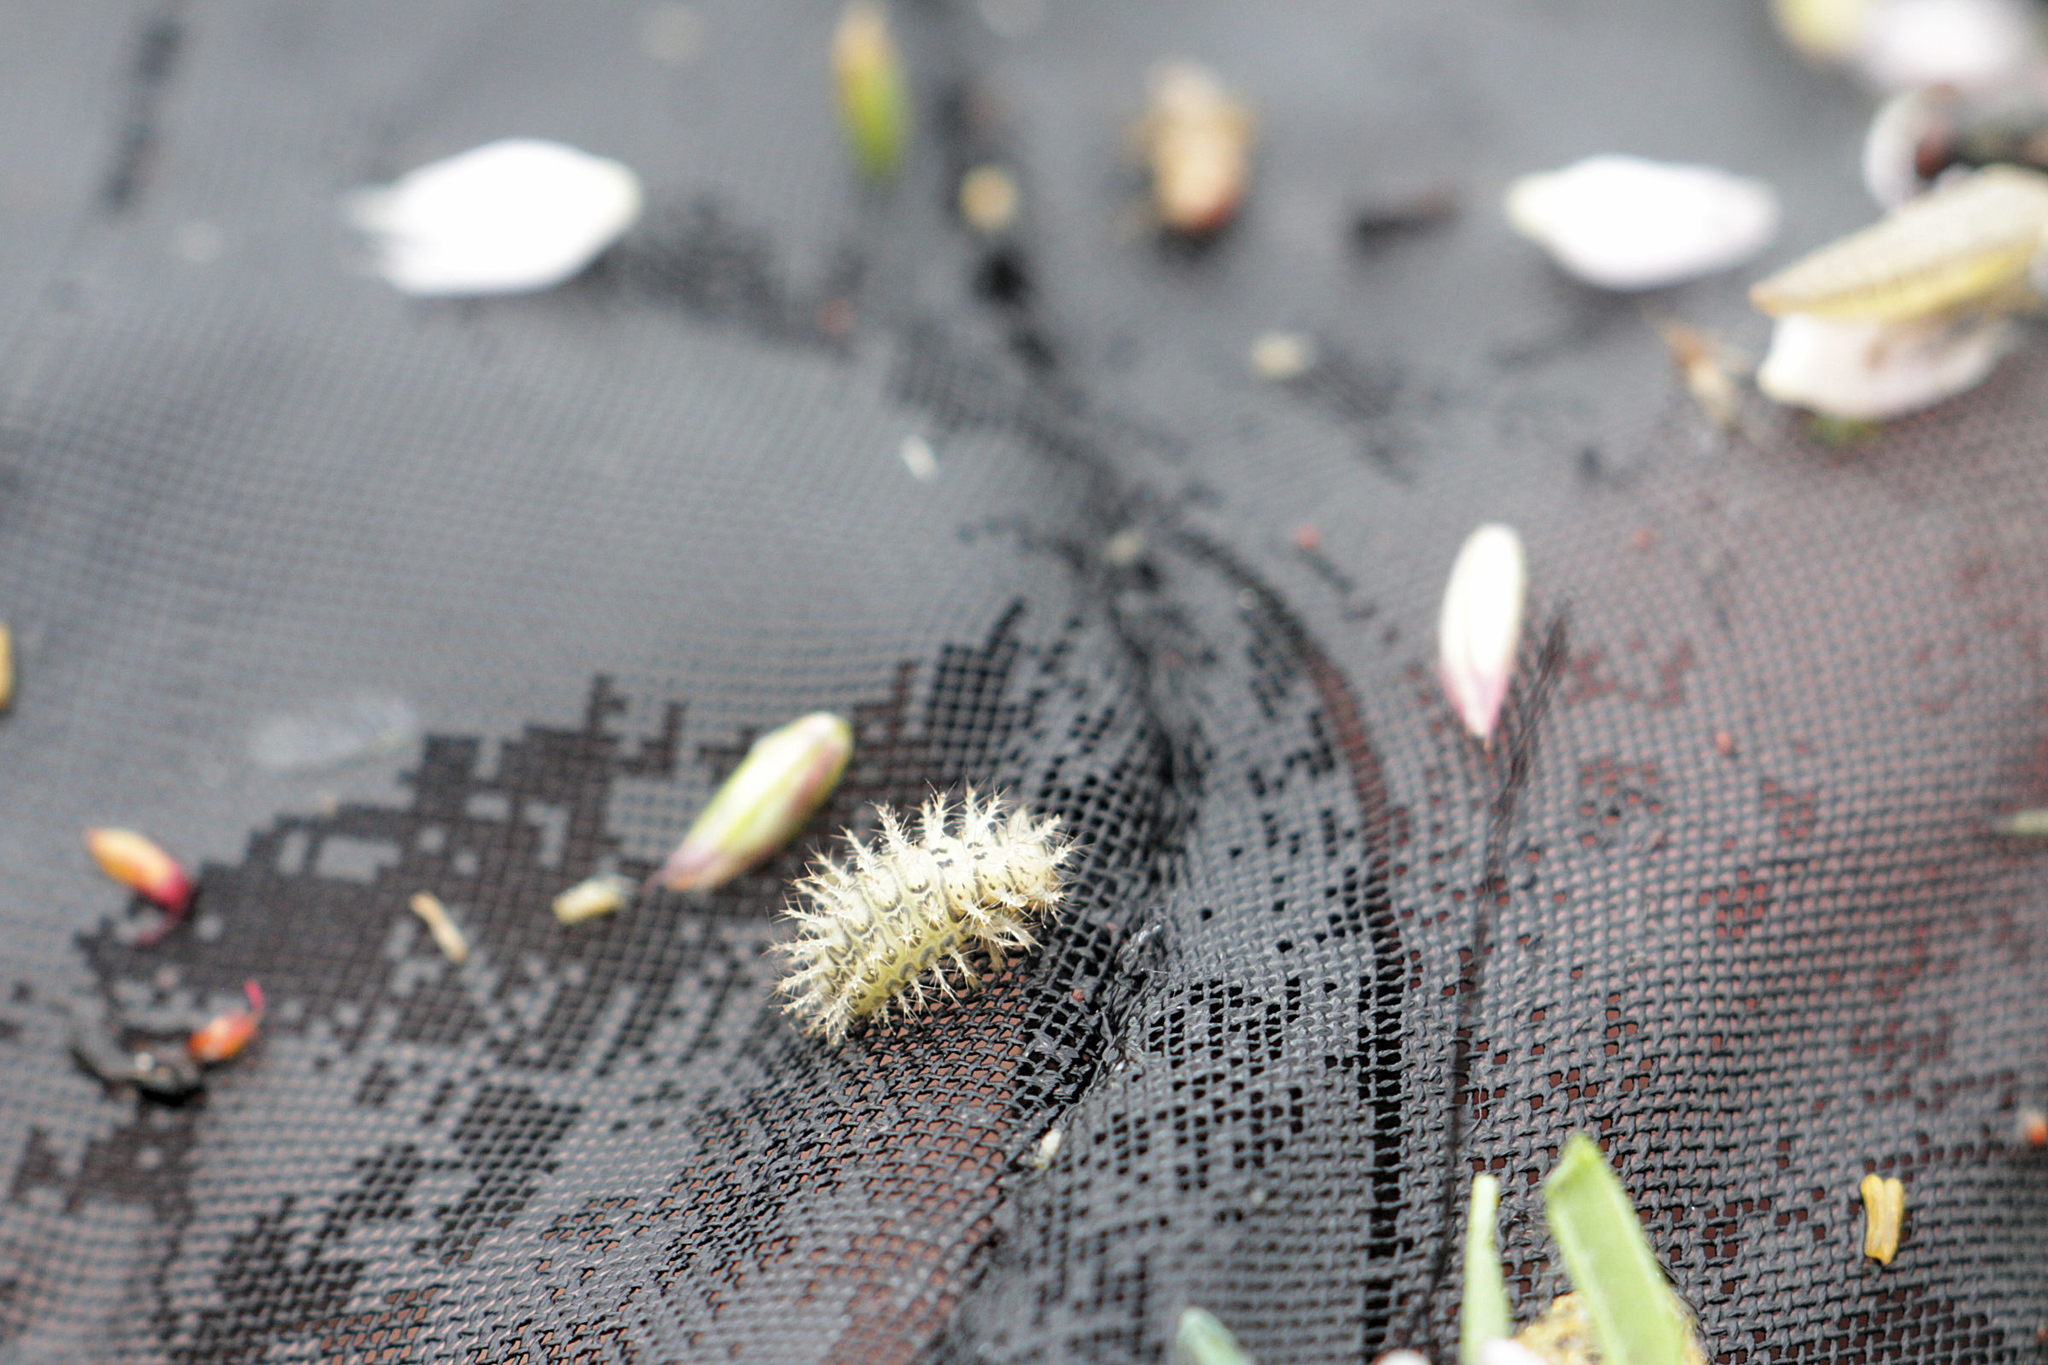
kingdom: Animalia
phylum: Arthropoda
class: Insecta
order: Coleoptera
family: Coccinellidae
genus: Subcoccinella
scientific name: Subcoccinella vigintiquatuorpunctata
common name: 24-spot ladybird
